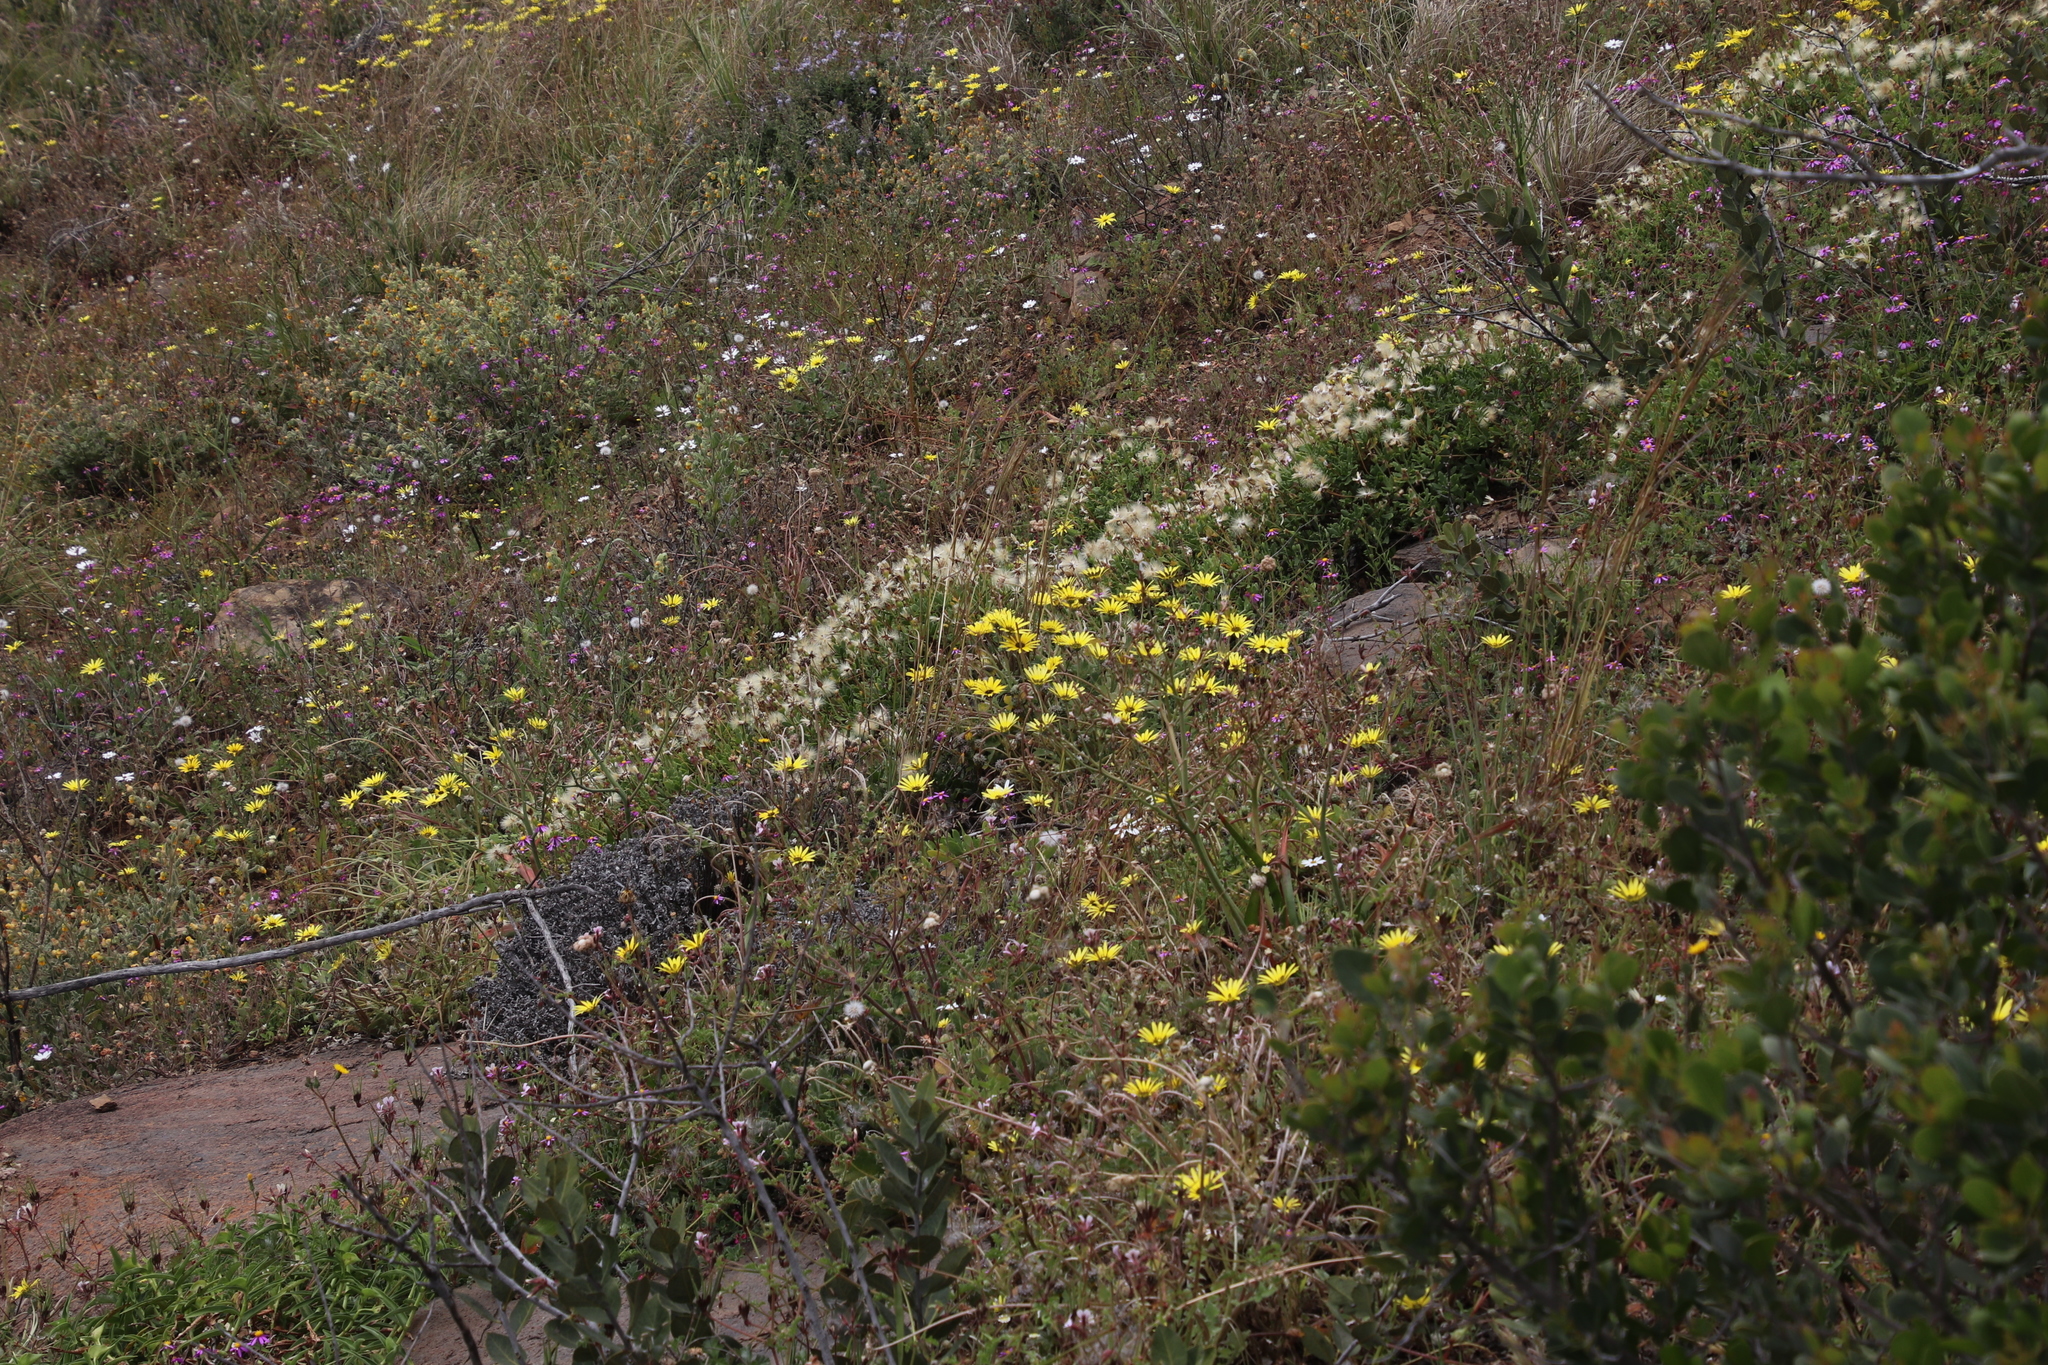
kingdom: Plantae
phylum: Tracheophyta
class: Magnoliopsida
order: Asterales
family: Asteraceae
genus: Arctotheca
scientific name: Arctotheca calendula
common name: Capeweed
